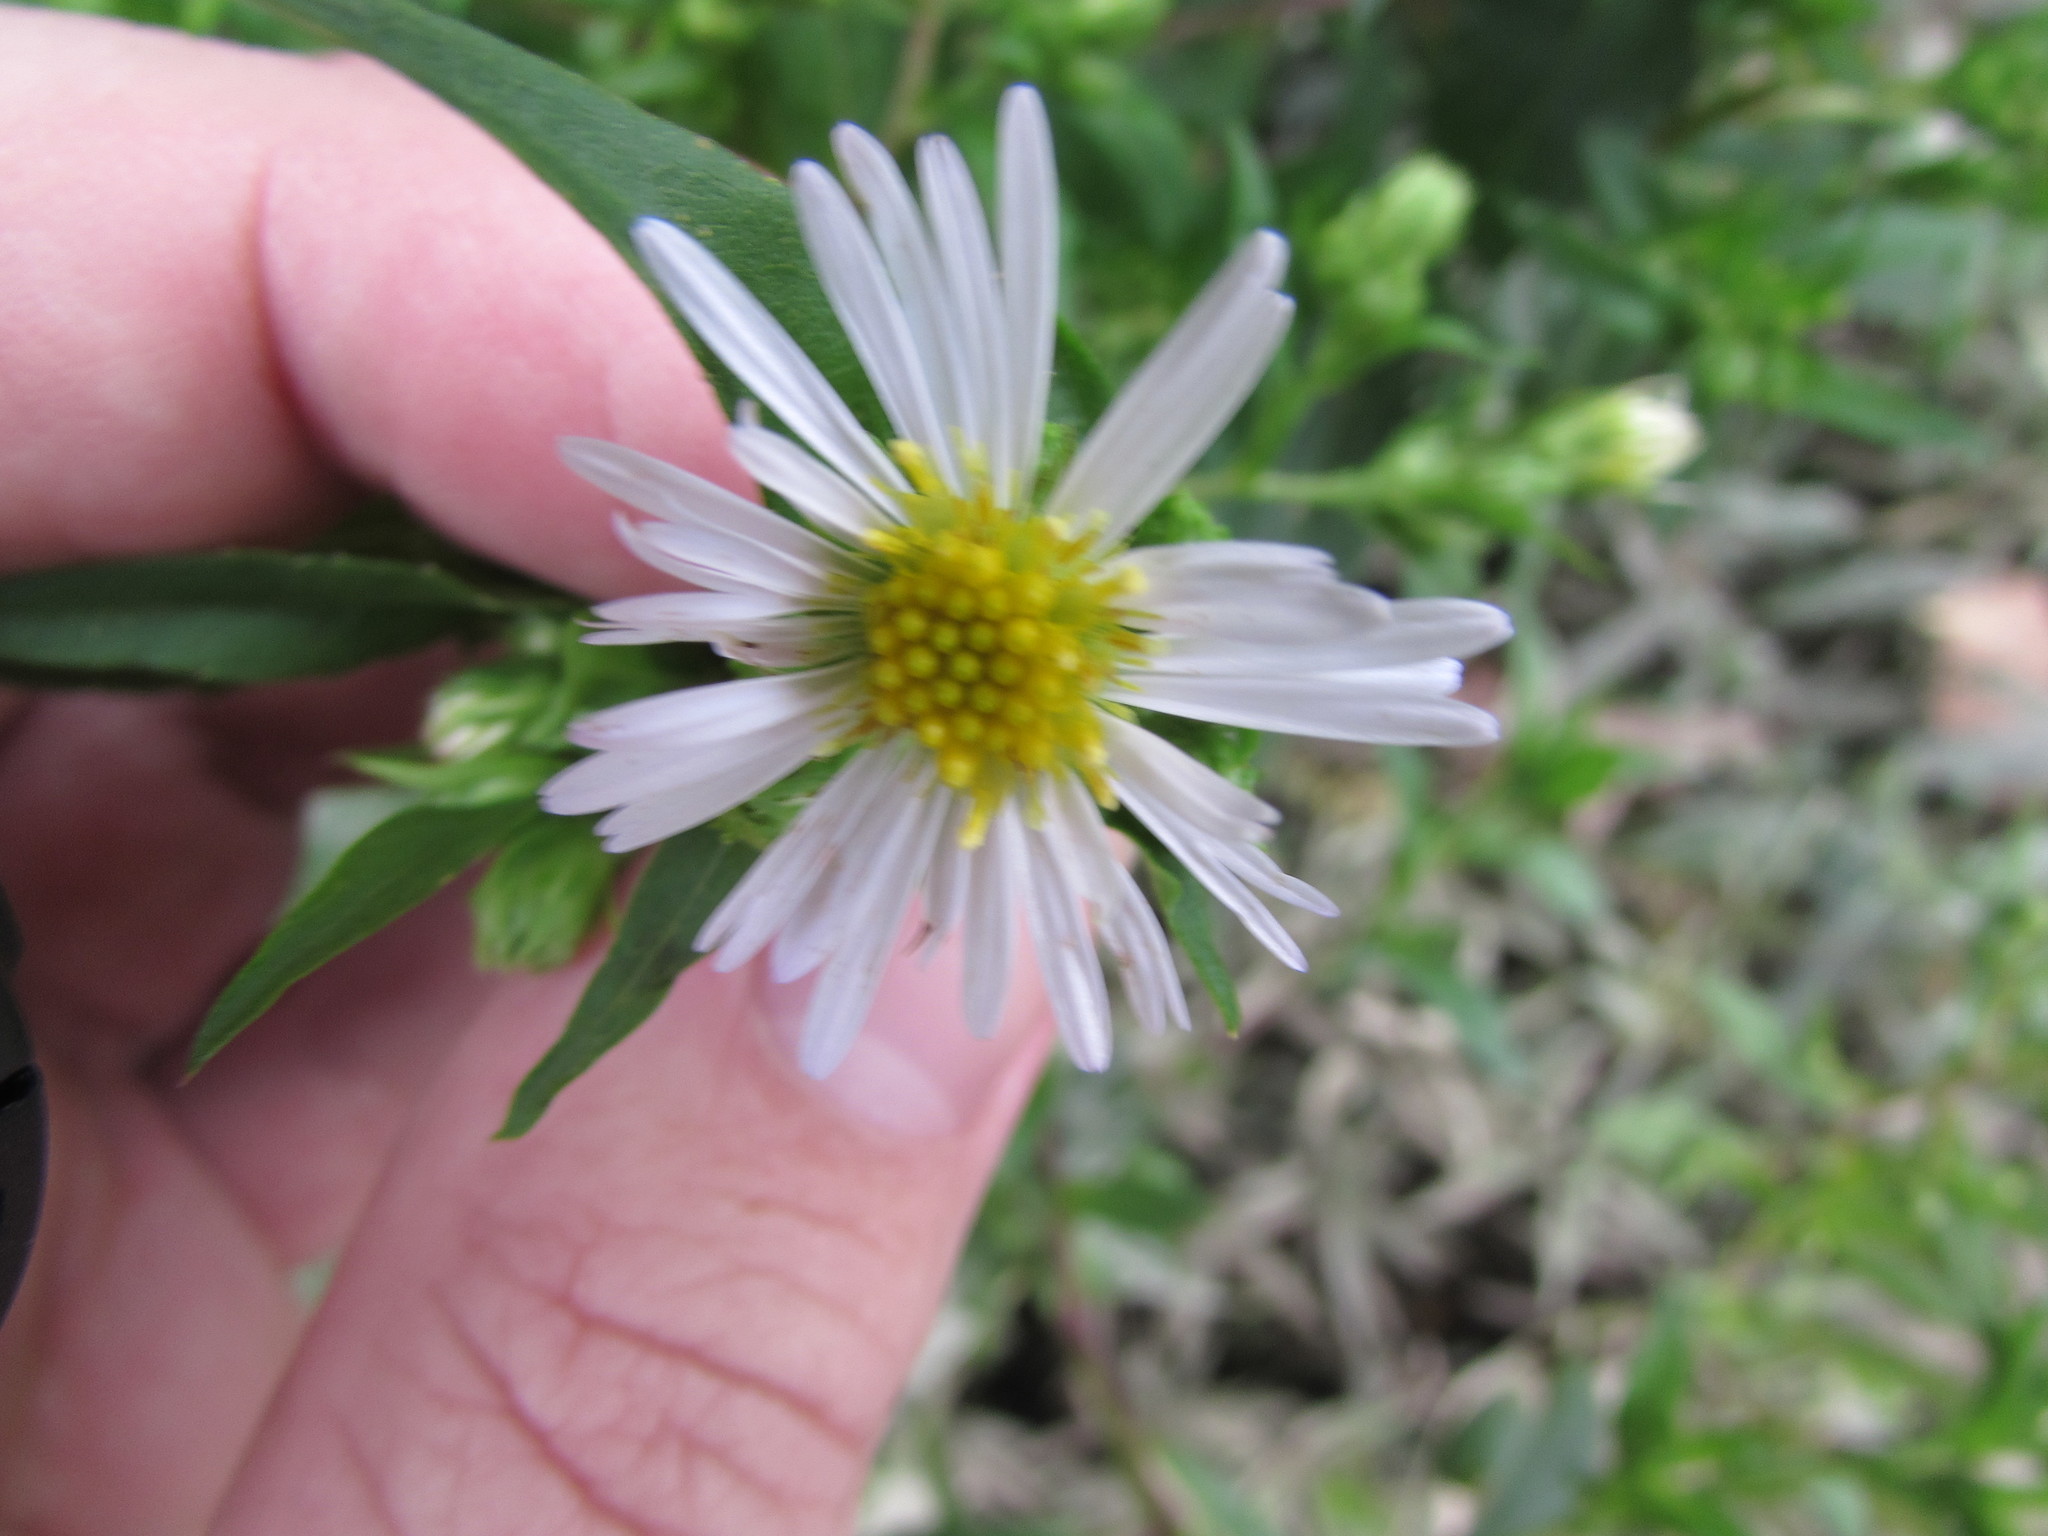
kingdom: Plantae
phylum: Tracheophyta
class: Magnoliopsida
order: Asterales
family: Asteraceae
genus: Symphyotrichum
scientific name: Symphyotrichum puniceum
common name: Bog aster
